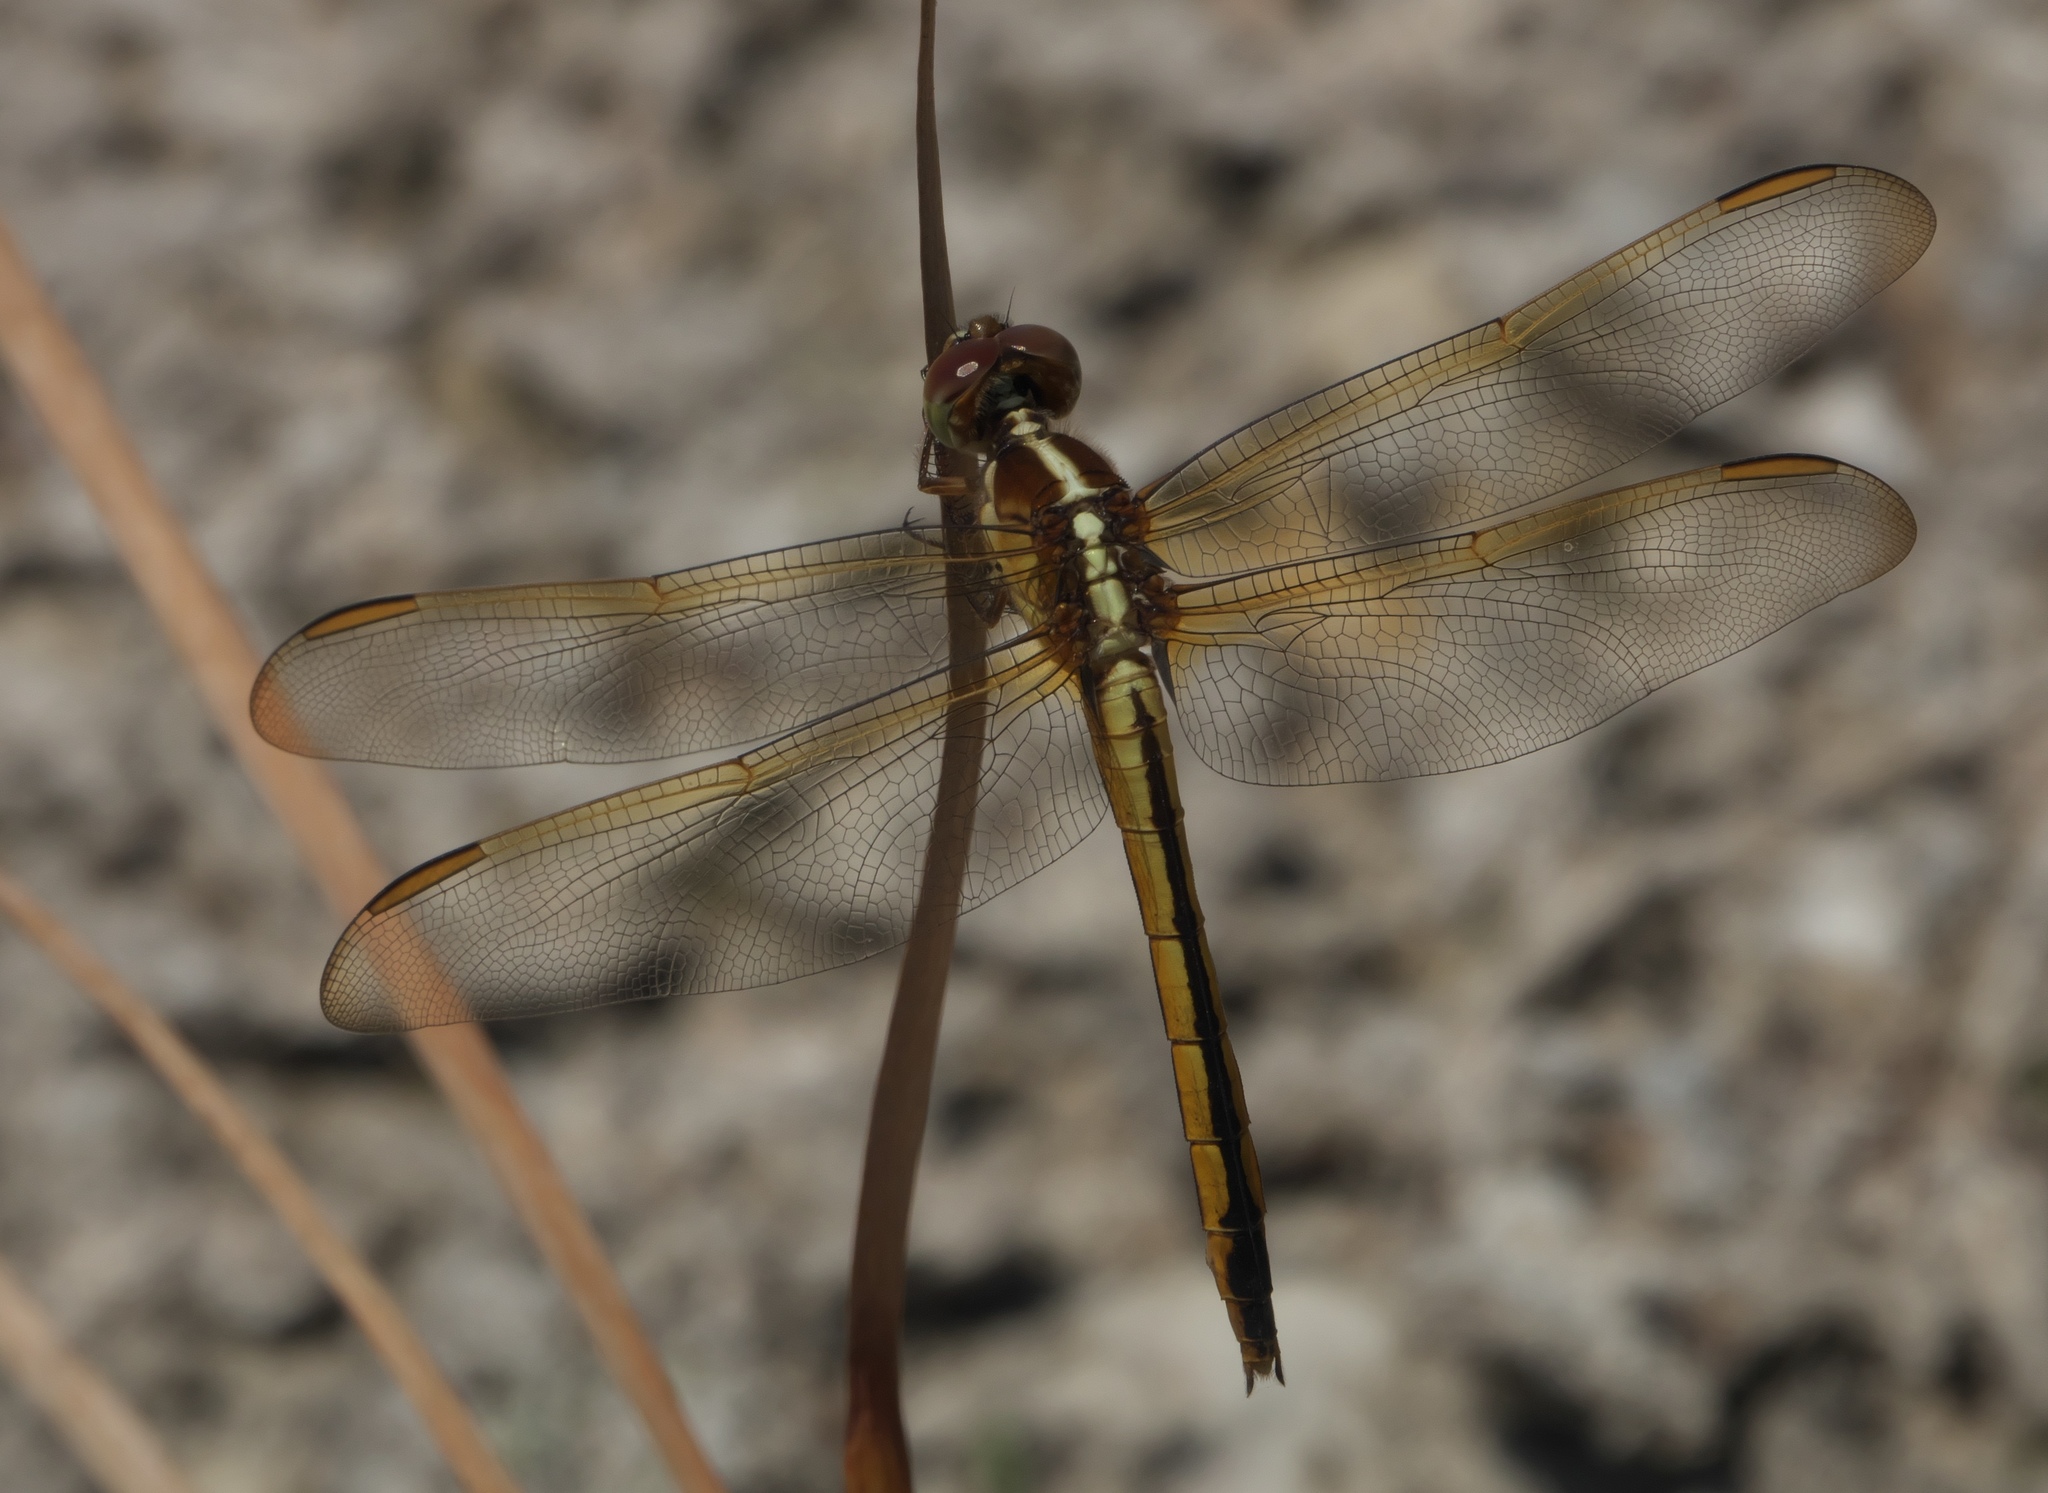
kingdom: Animalia
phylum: Arthropoda
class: Insecta
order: Odonata
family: Libellulidae
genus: Libellula
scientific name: Libellula needhami
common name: Needham's skimmer
